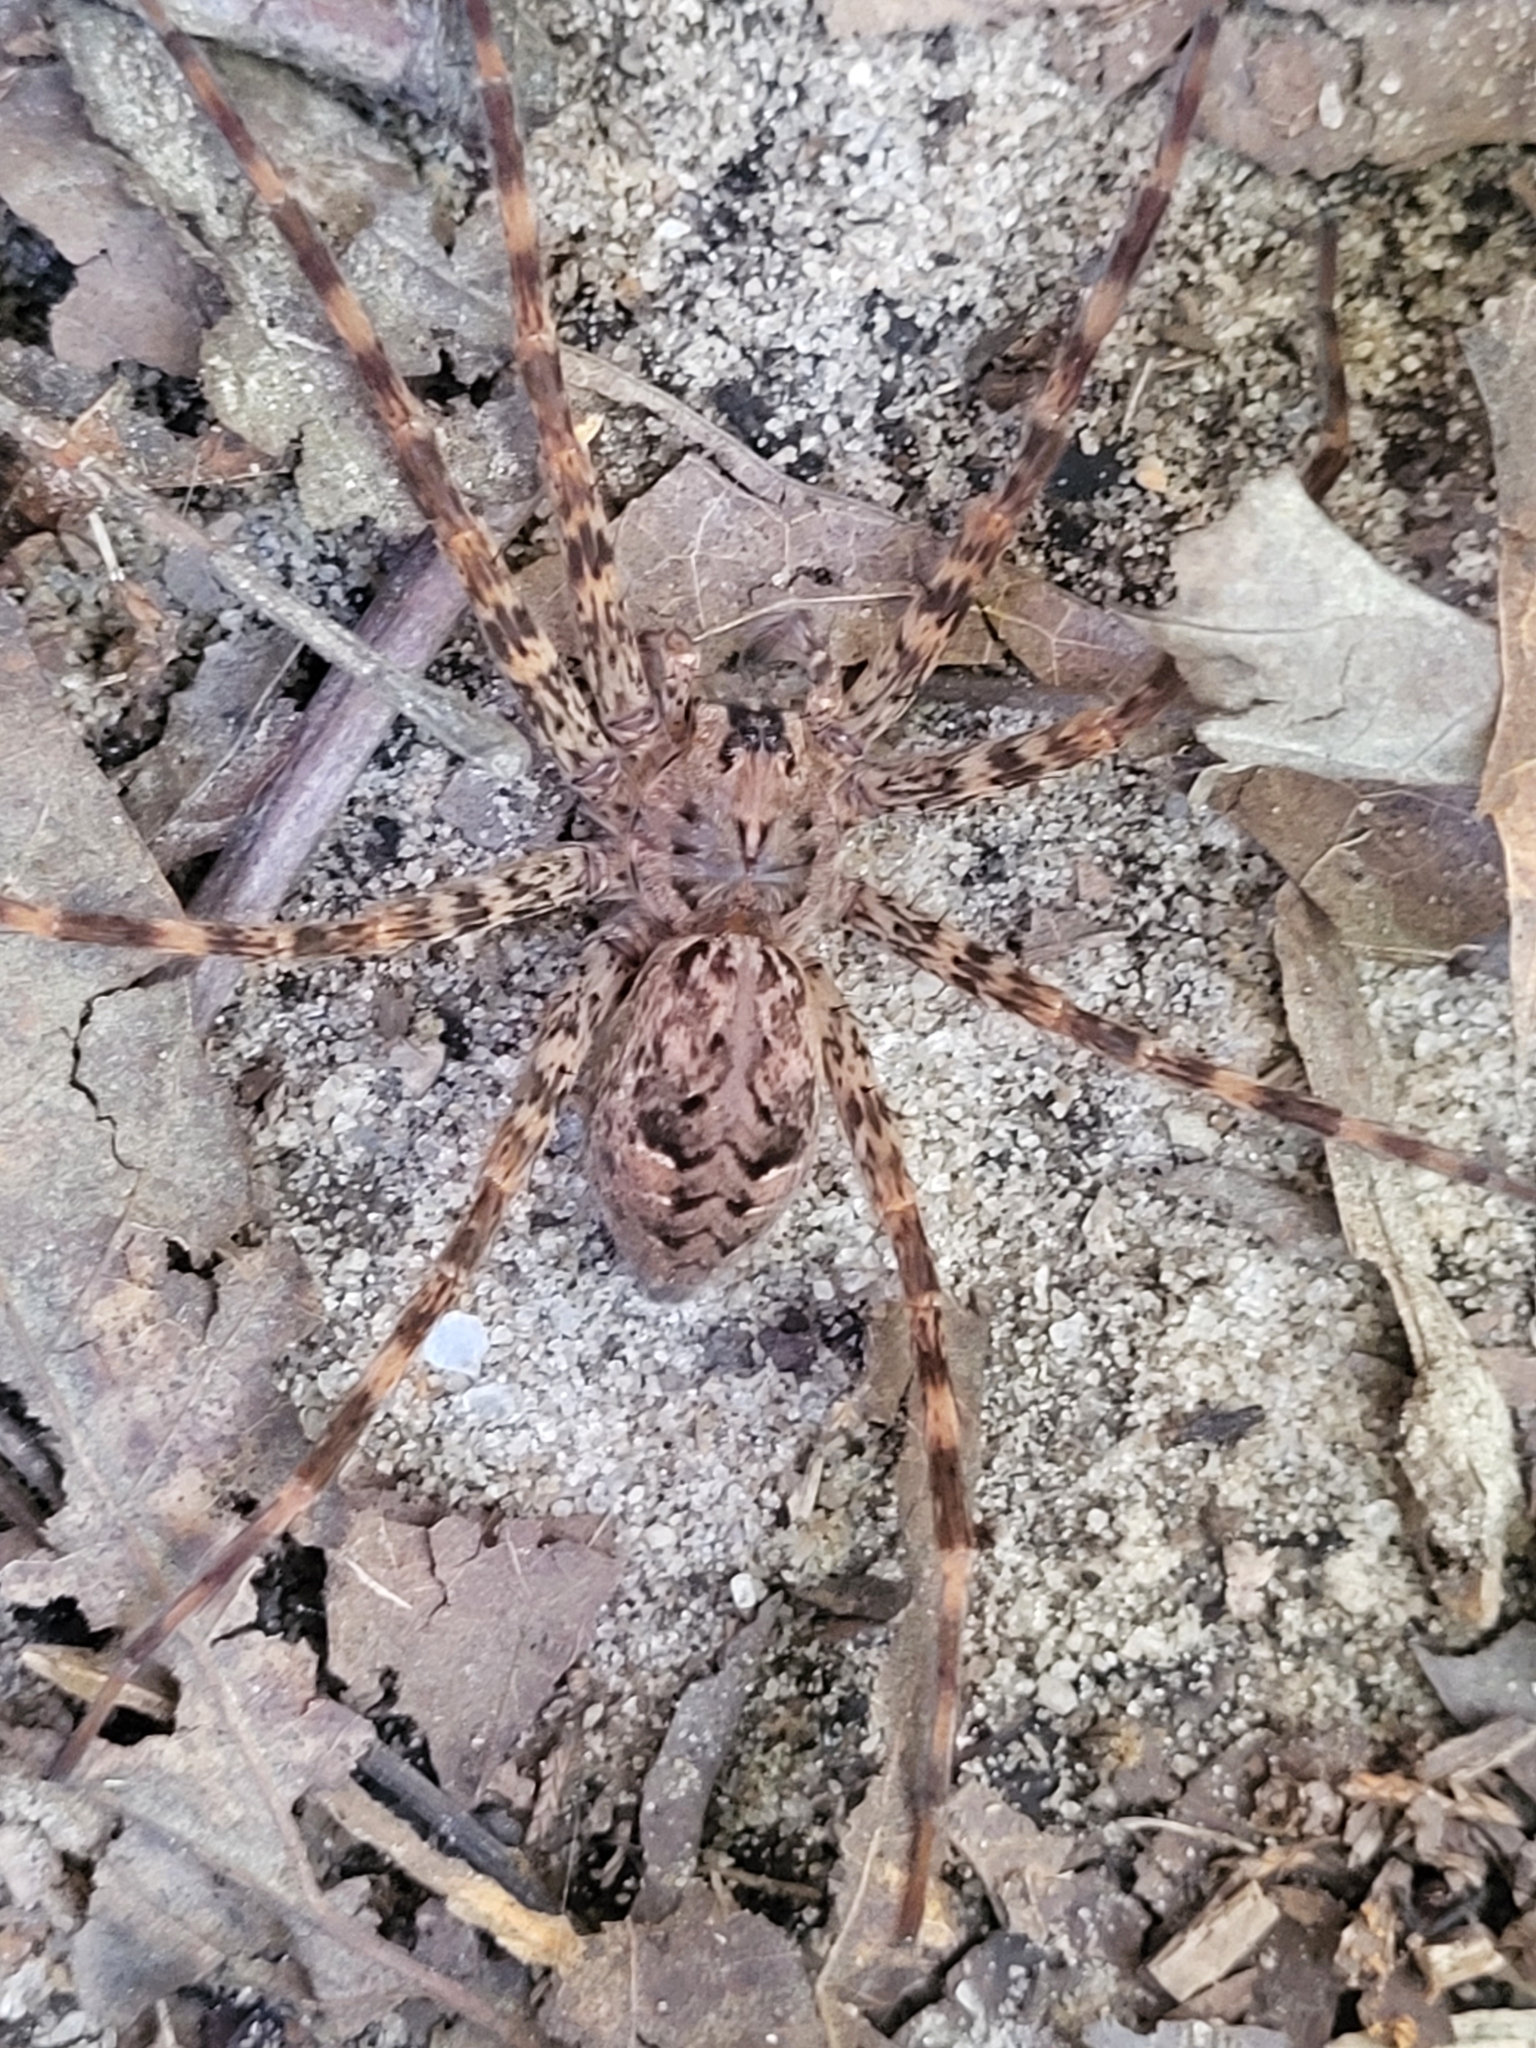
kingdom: Animalia
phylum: Arthropoda
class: Arachnida
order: Araneae
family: Pisauridae
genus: Dolomedes
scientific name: Dolomedes tenebrosus
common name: Dark fishing spider
